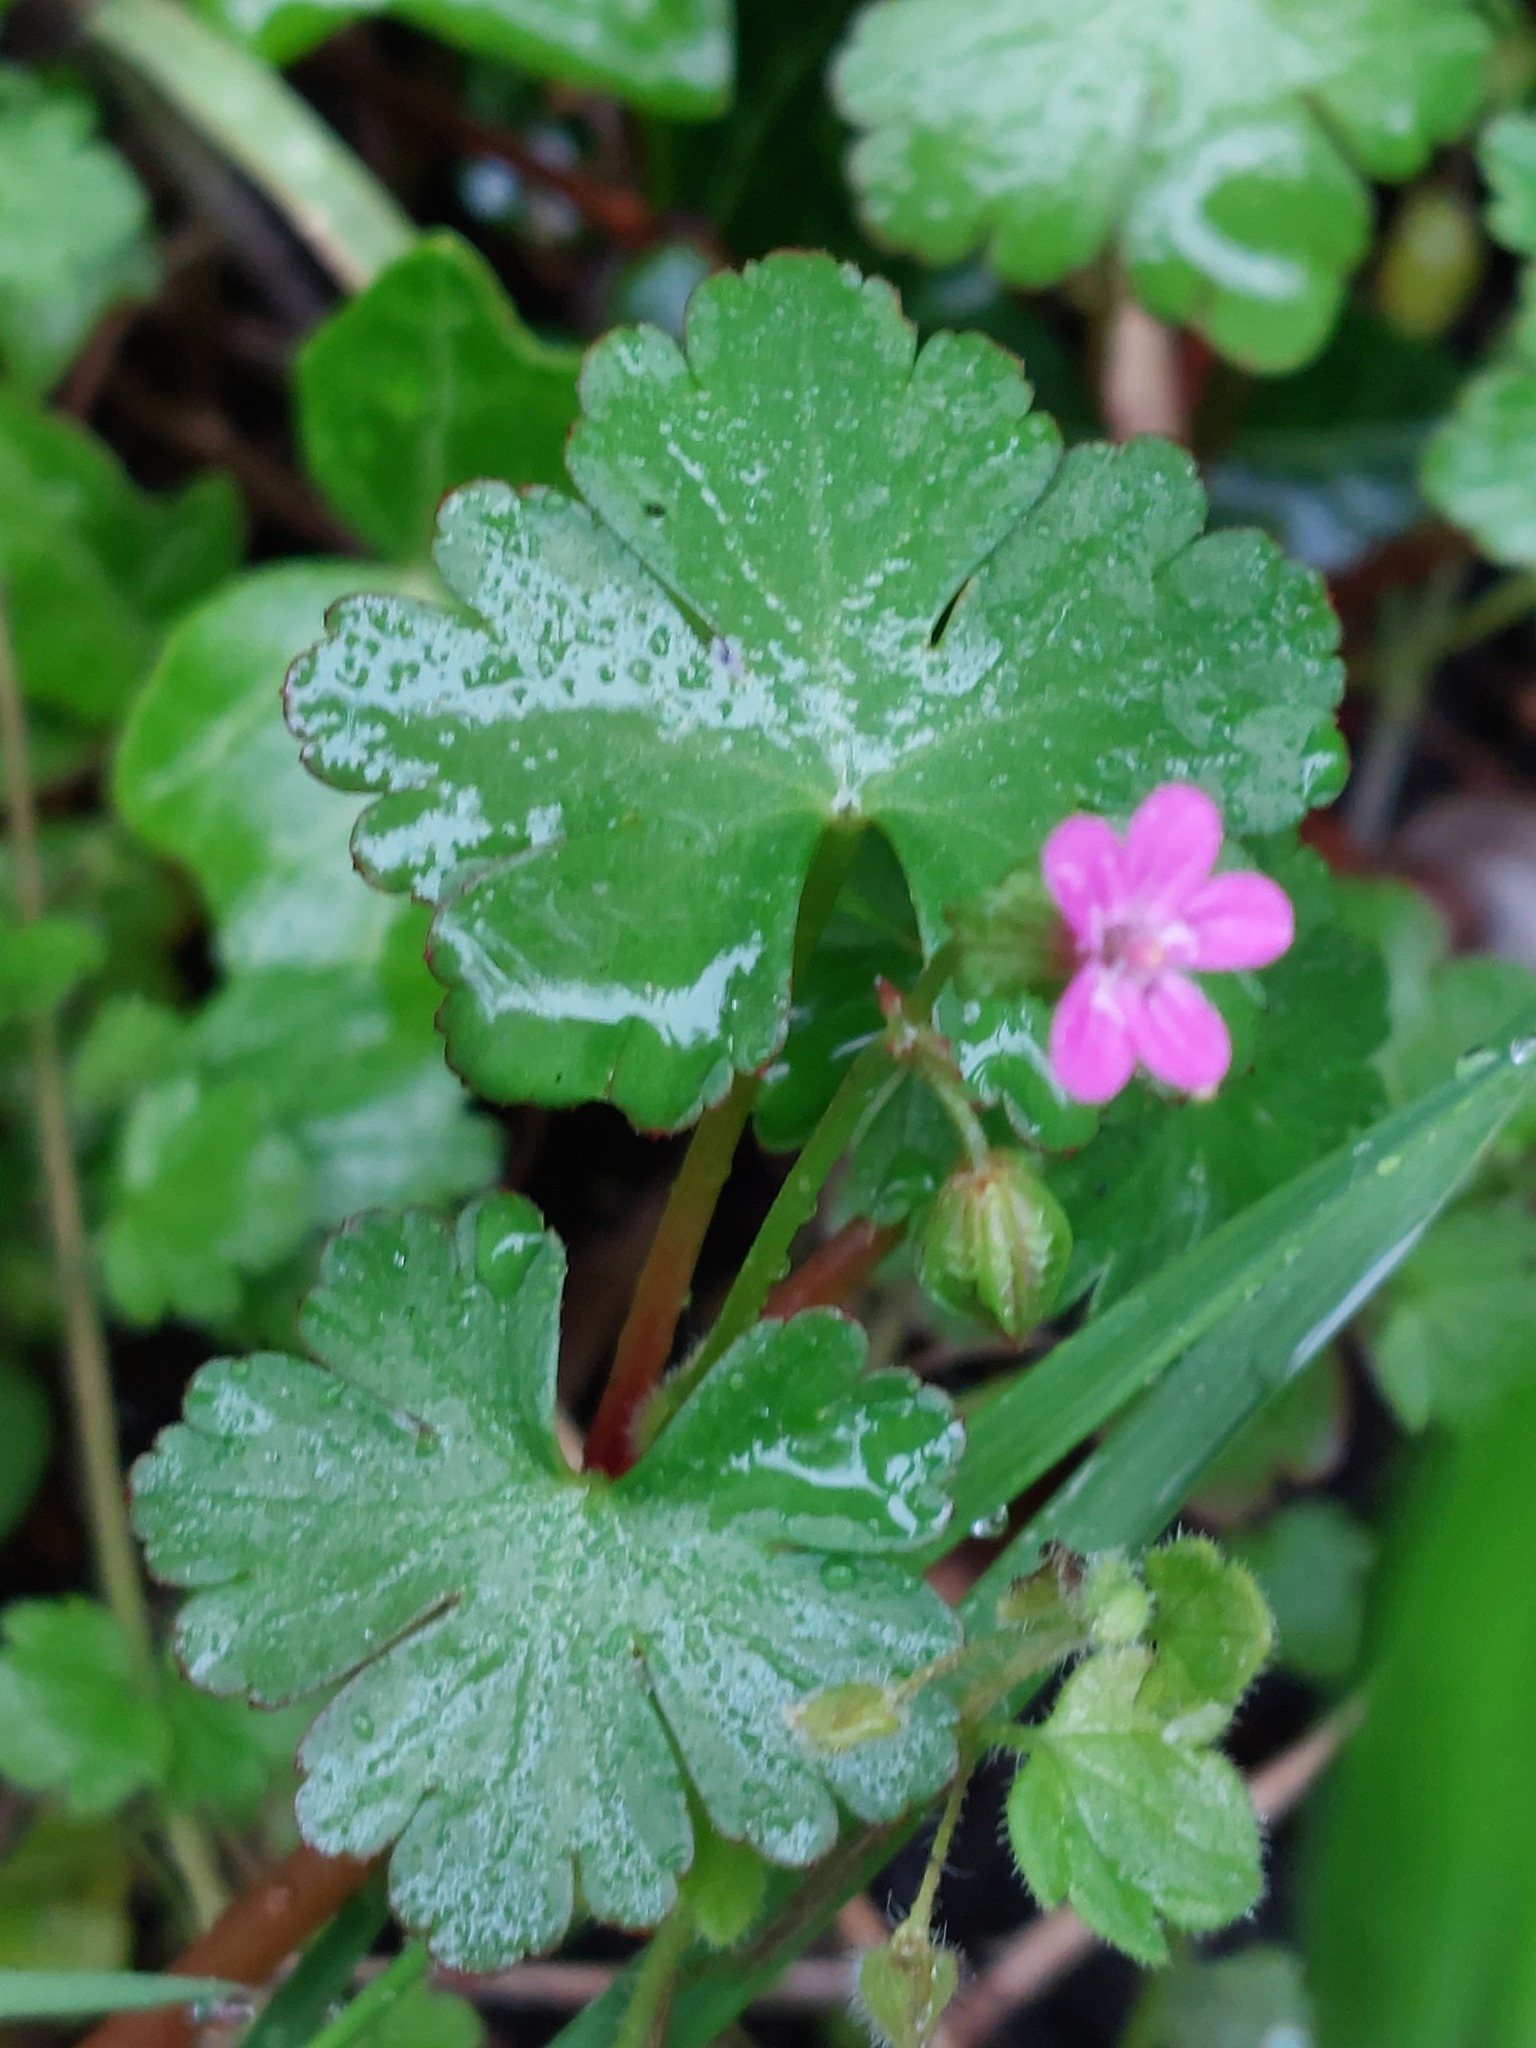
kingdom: Plantae
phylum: Tracheophyta
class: Magnoliopsida
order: Geraniales
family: Geraniaceae
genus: Geranium
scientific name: Geranium lucidum
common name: Shining crane's-bill
